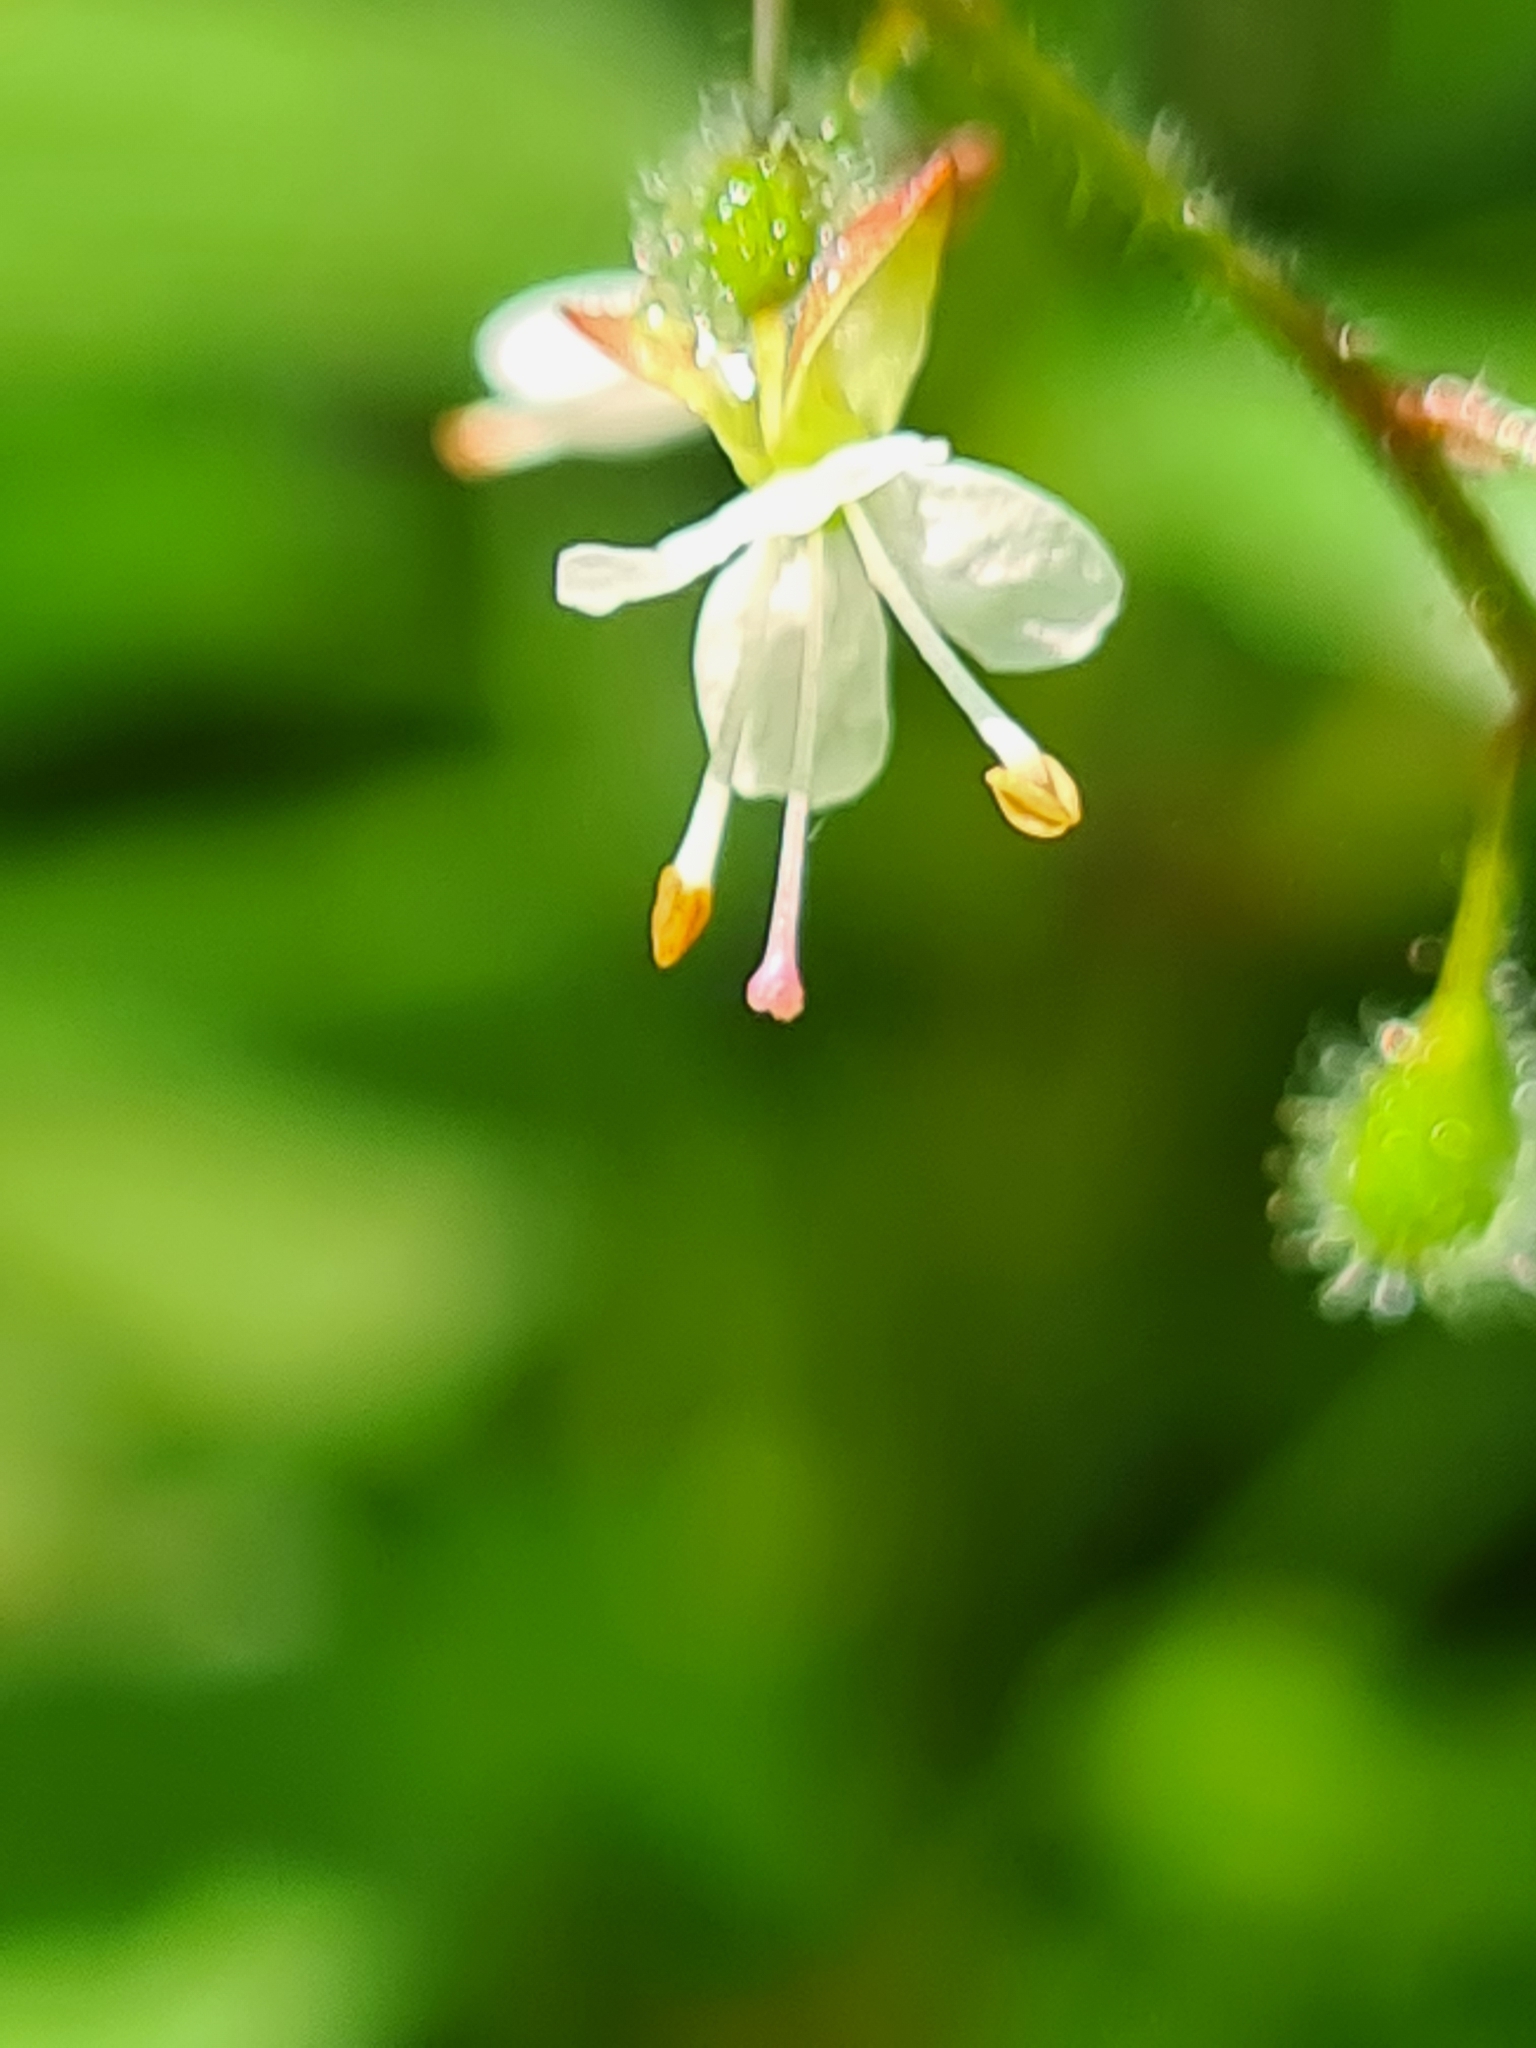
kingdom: Plantae
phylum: Tracheophyta
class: Magnoliopsida
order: Myrtales
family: Onagraceae
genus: Circaea
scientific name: Circaea lutetiana
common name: Enchanter's-nightshade
